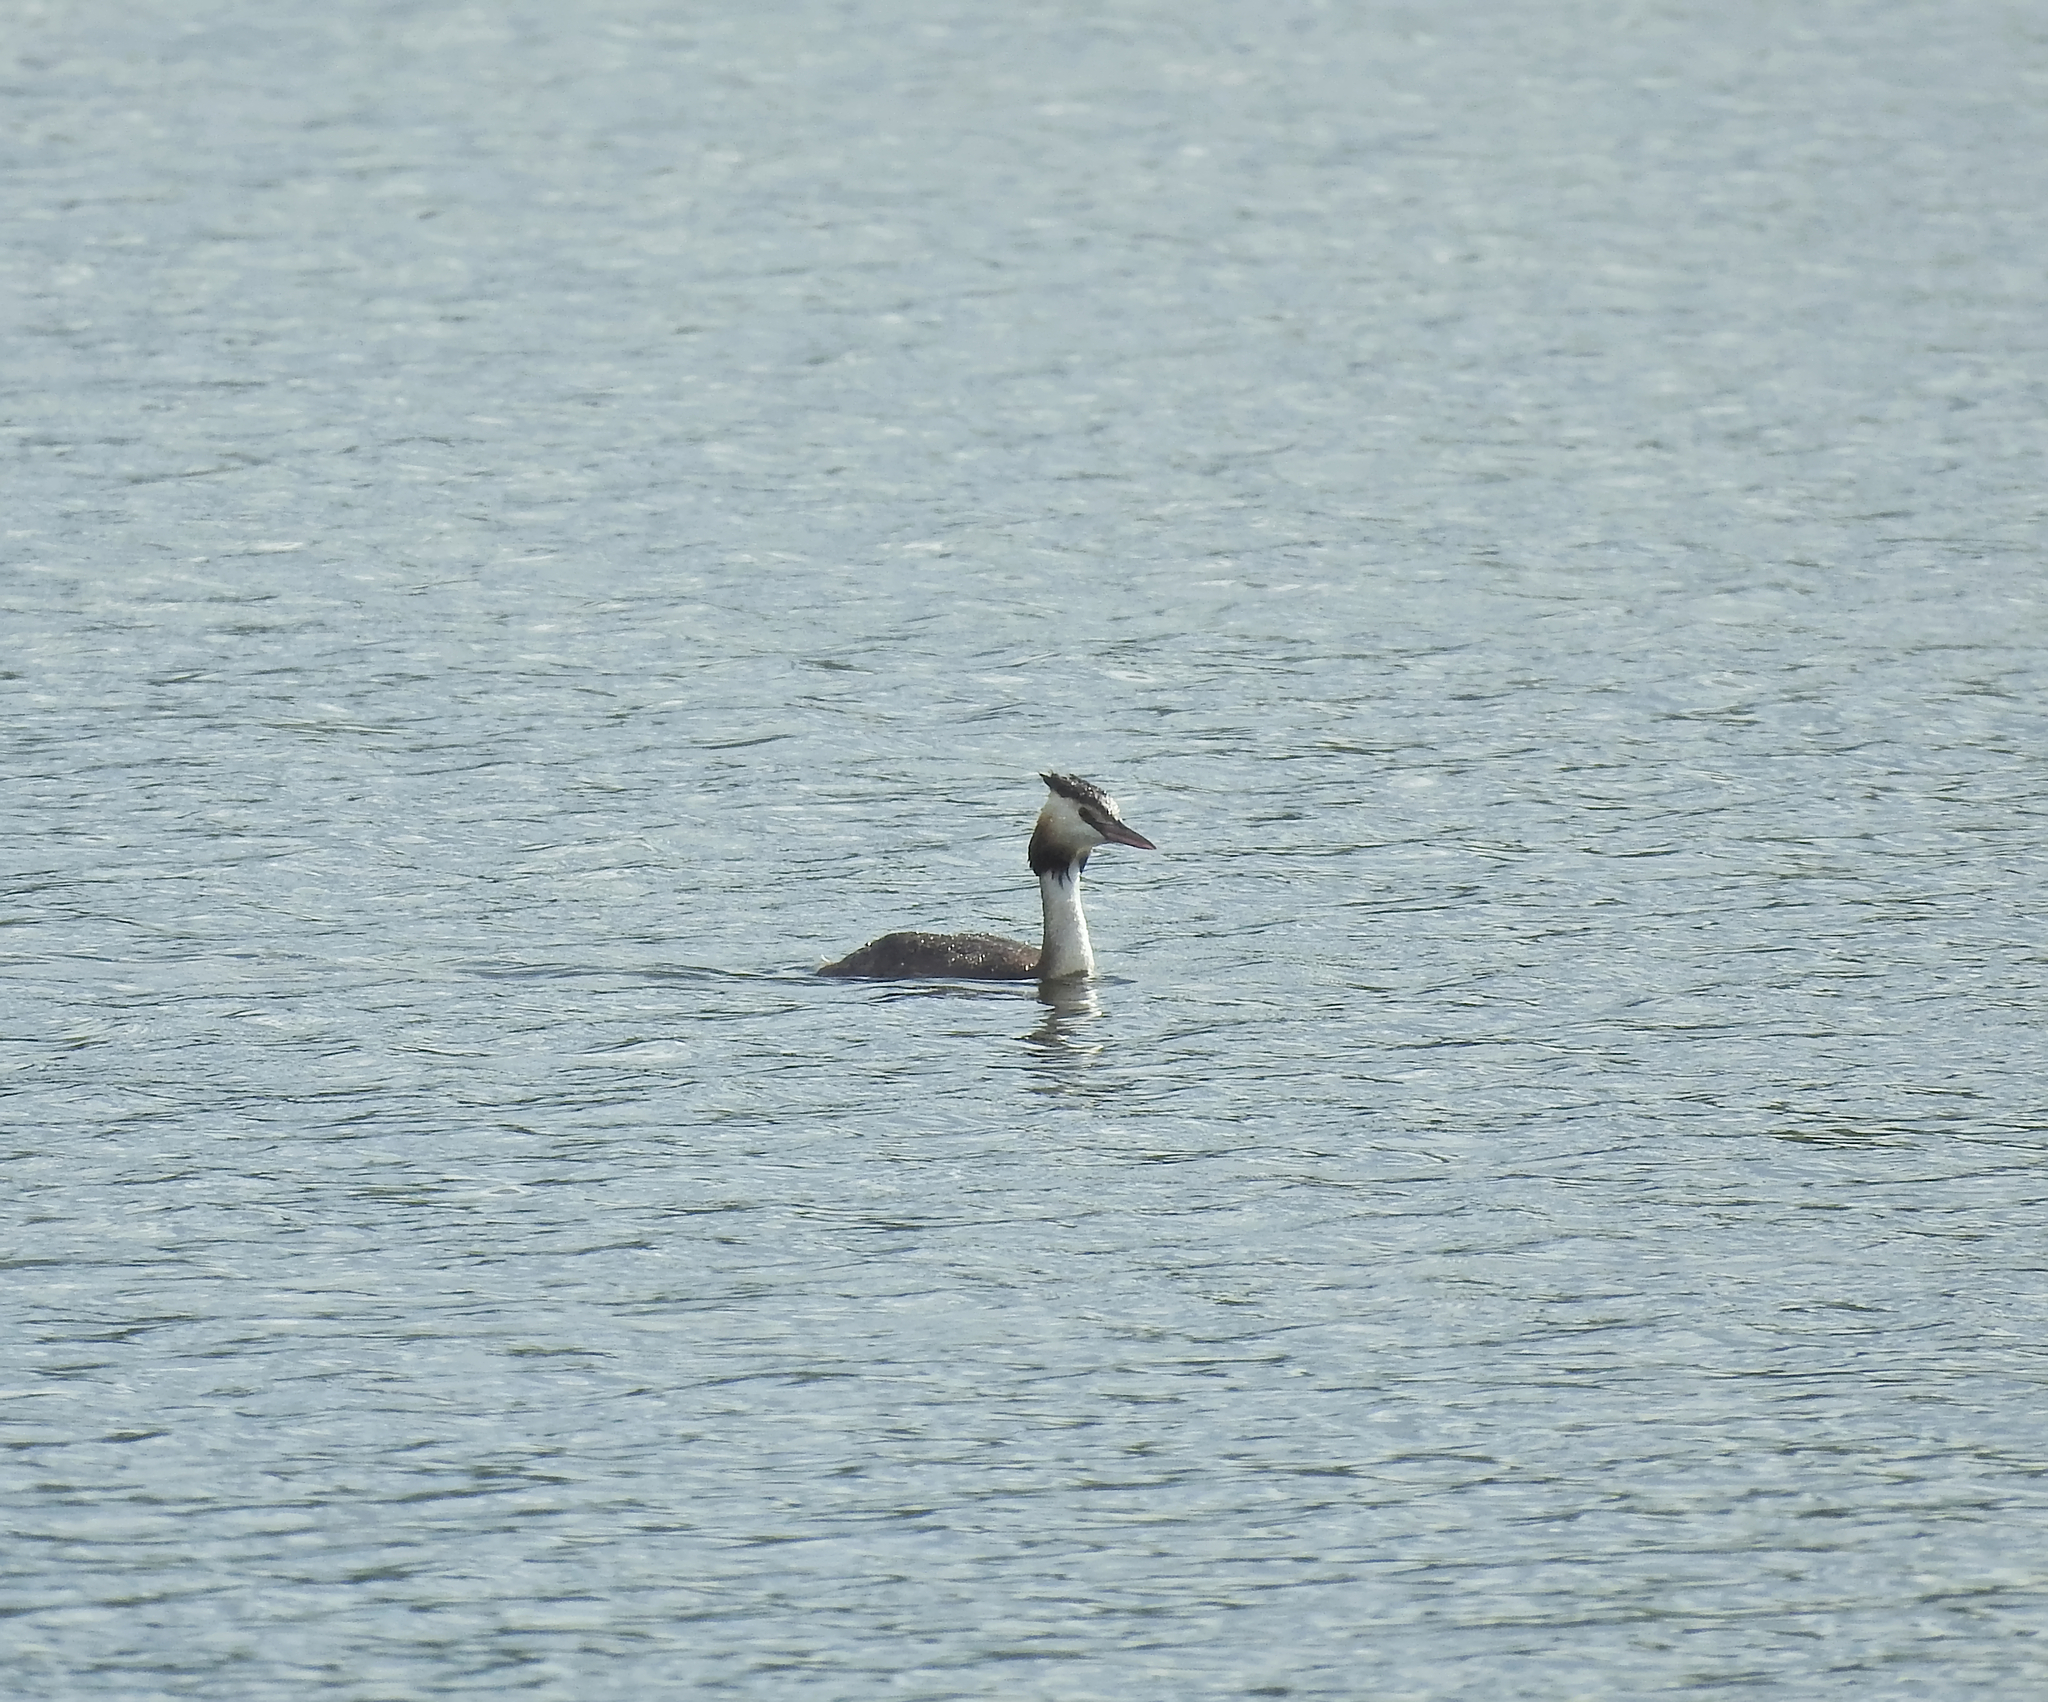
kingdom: Animalia
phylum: Chordata
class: Aves
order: Podicipediformes
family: Podicipedidae
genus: Podiceps
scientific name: Podiceps cristatus
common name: Great crested grebe
